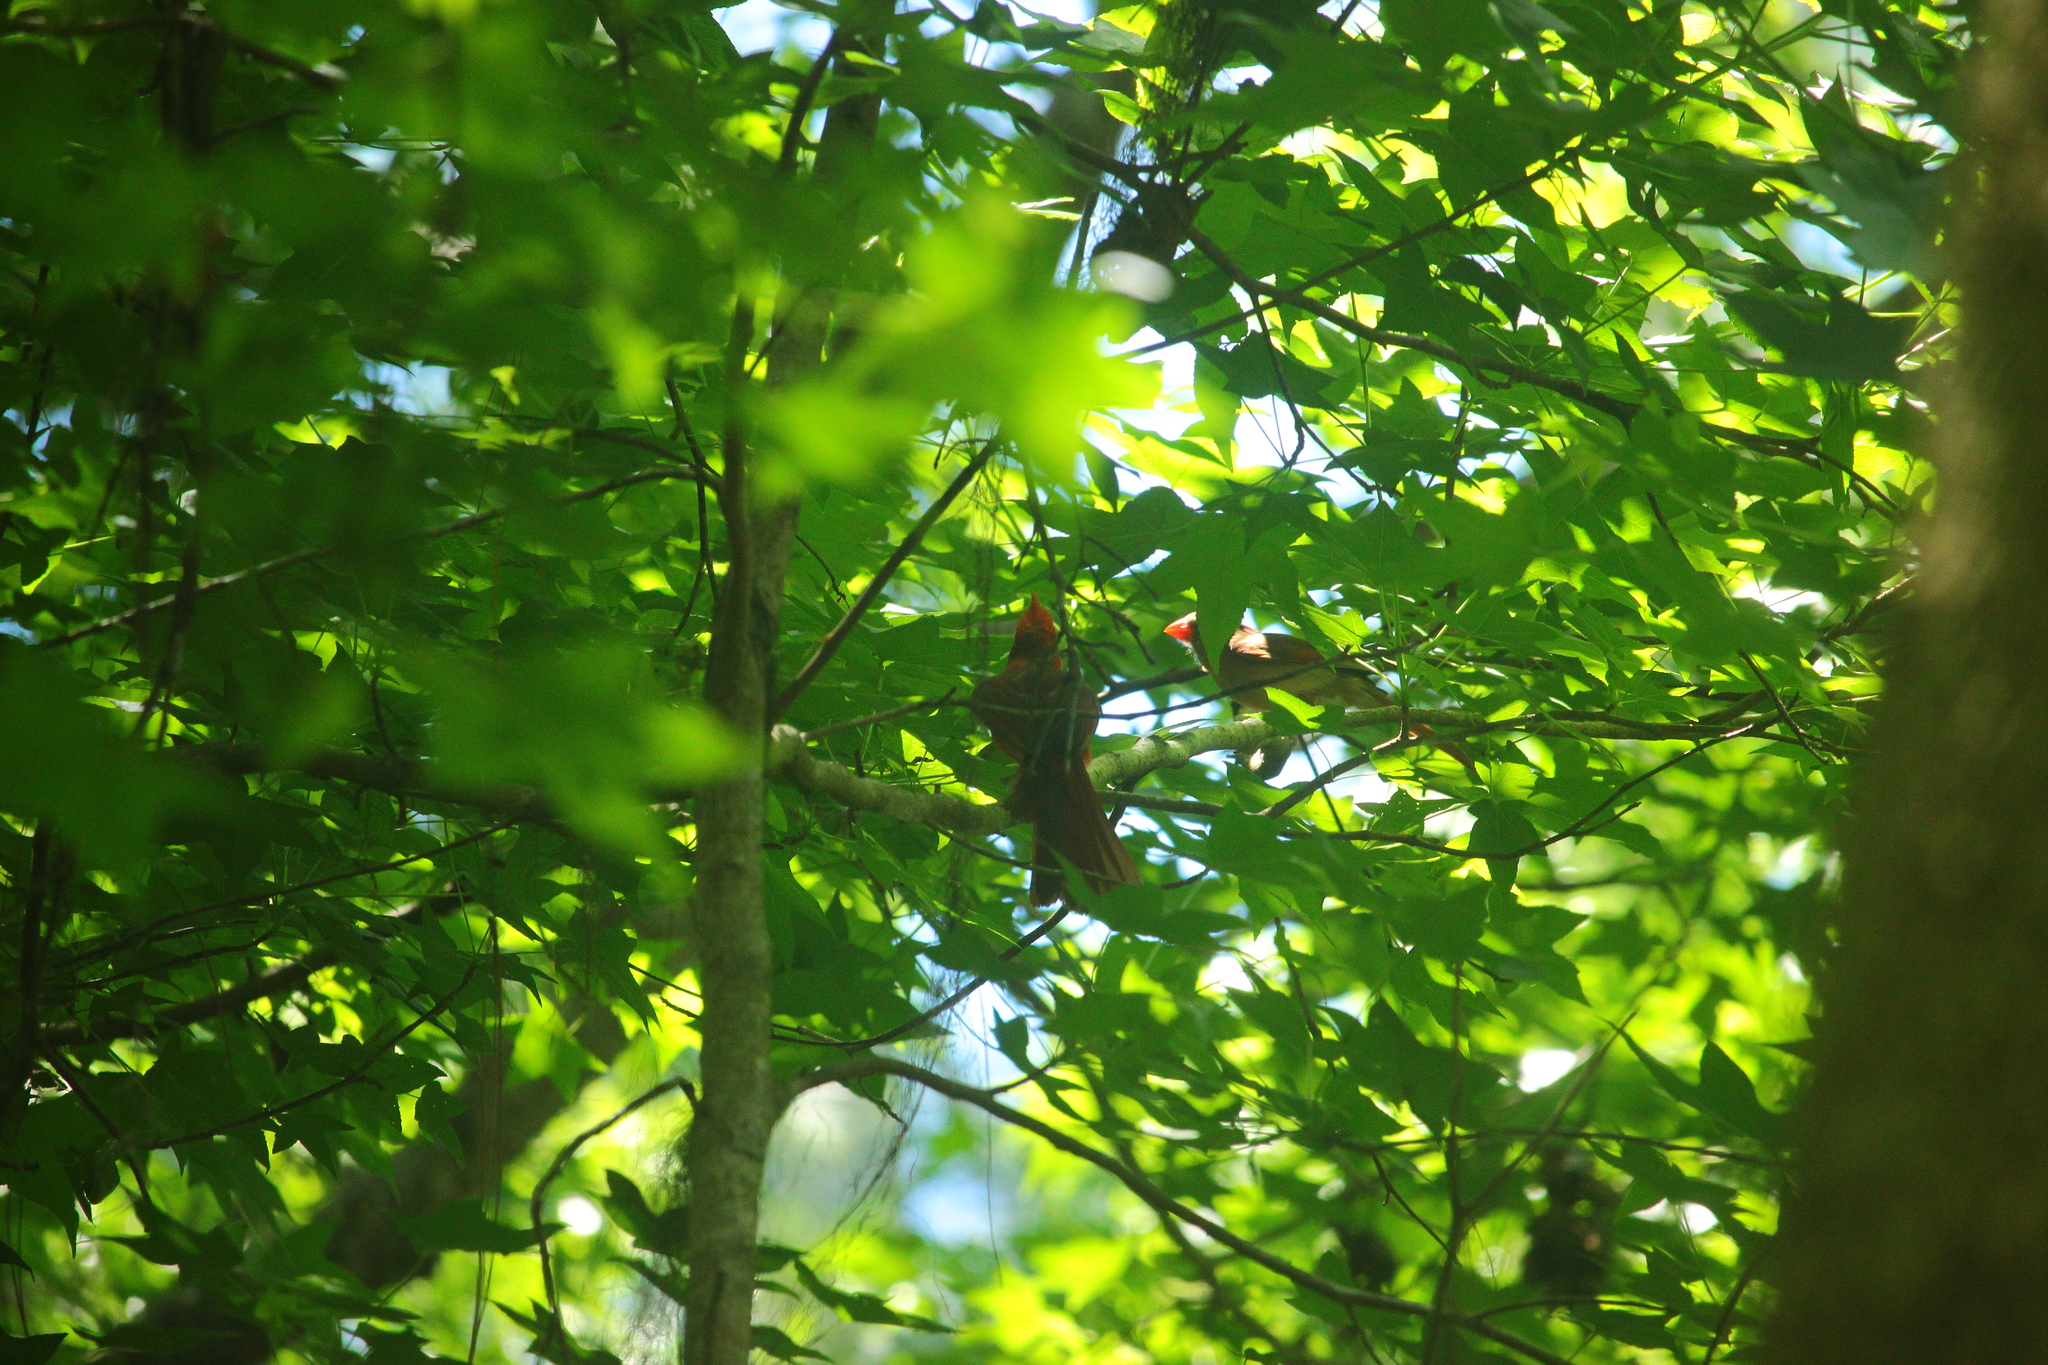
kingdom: Animalia
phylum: Chordata
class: Aves
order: Passeriformes
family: Cardinalidae
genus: Cardinalis
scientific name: Cardinalis cardinalis
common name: Northern cardinal
